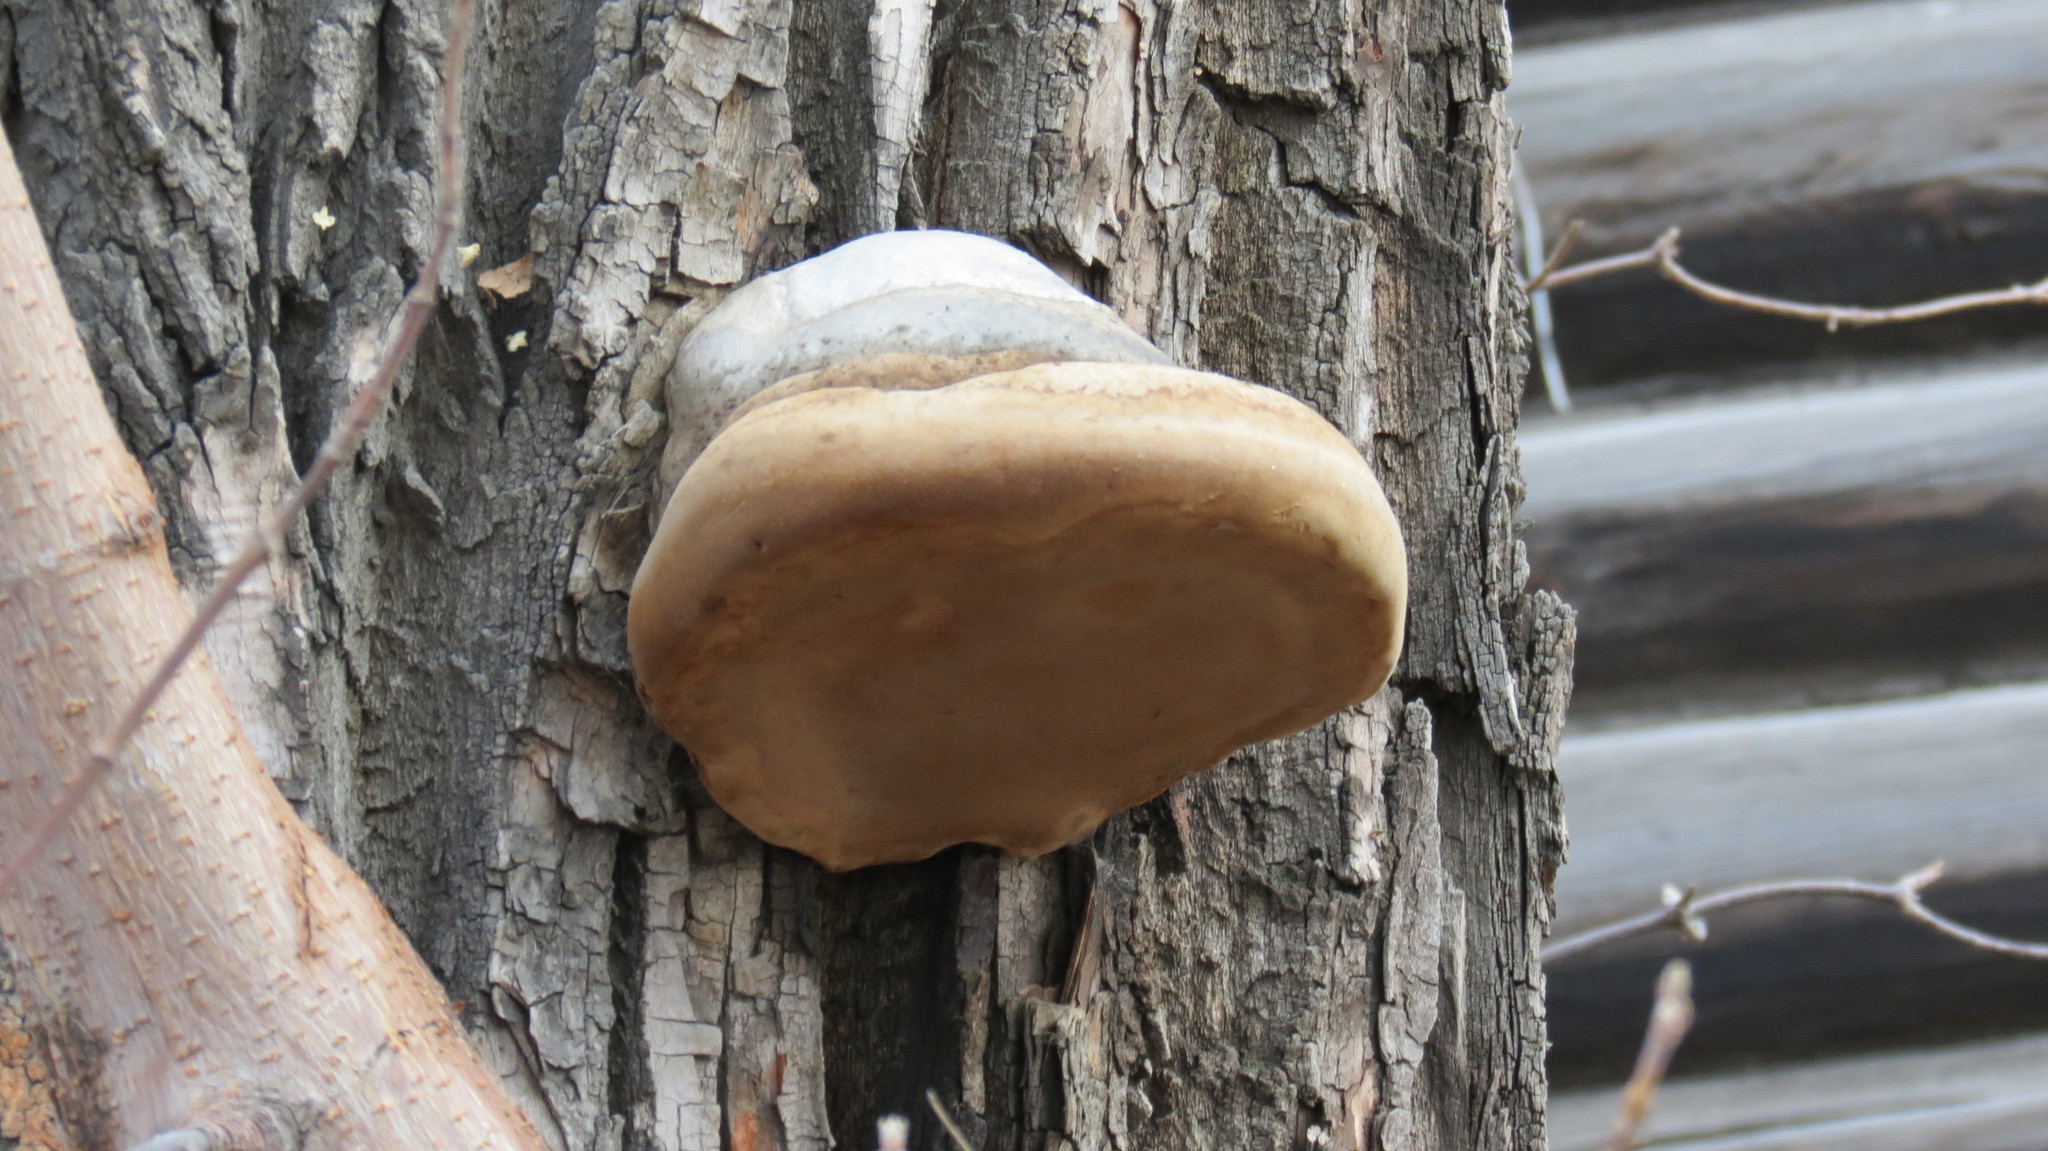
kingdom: Fungi
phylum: Basidiomycota
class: Agaricomycetes
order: Polyporales
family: Polyporaceae
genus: Fomes
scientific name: Fomes fomentarius
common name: Hoof fungus
